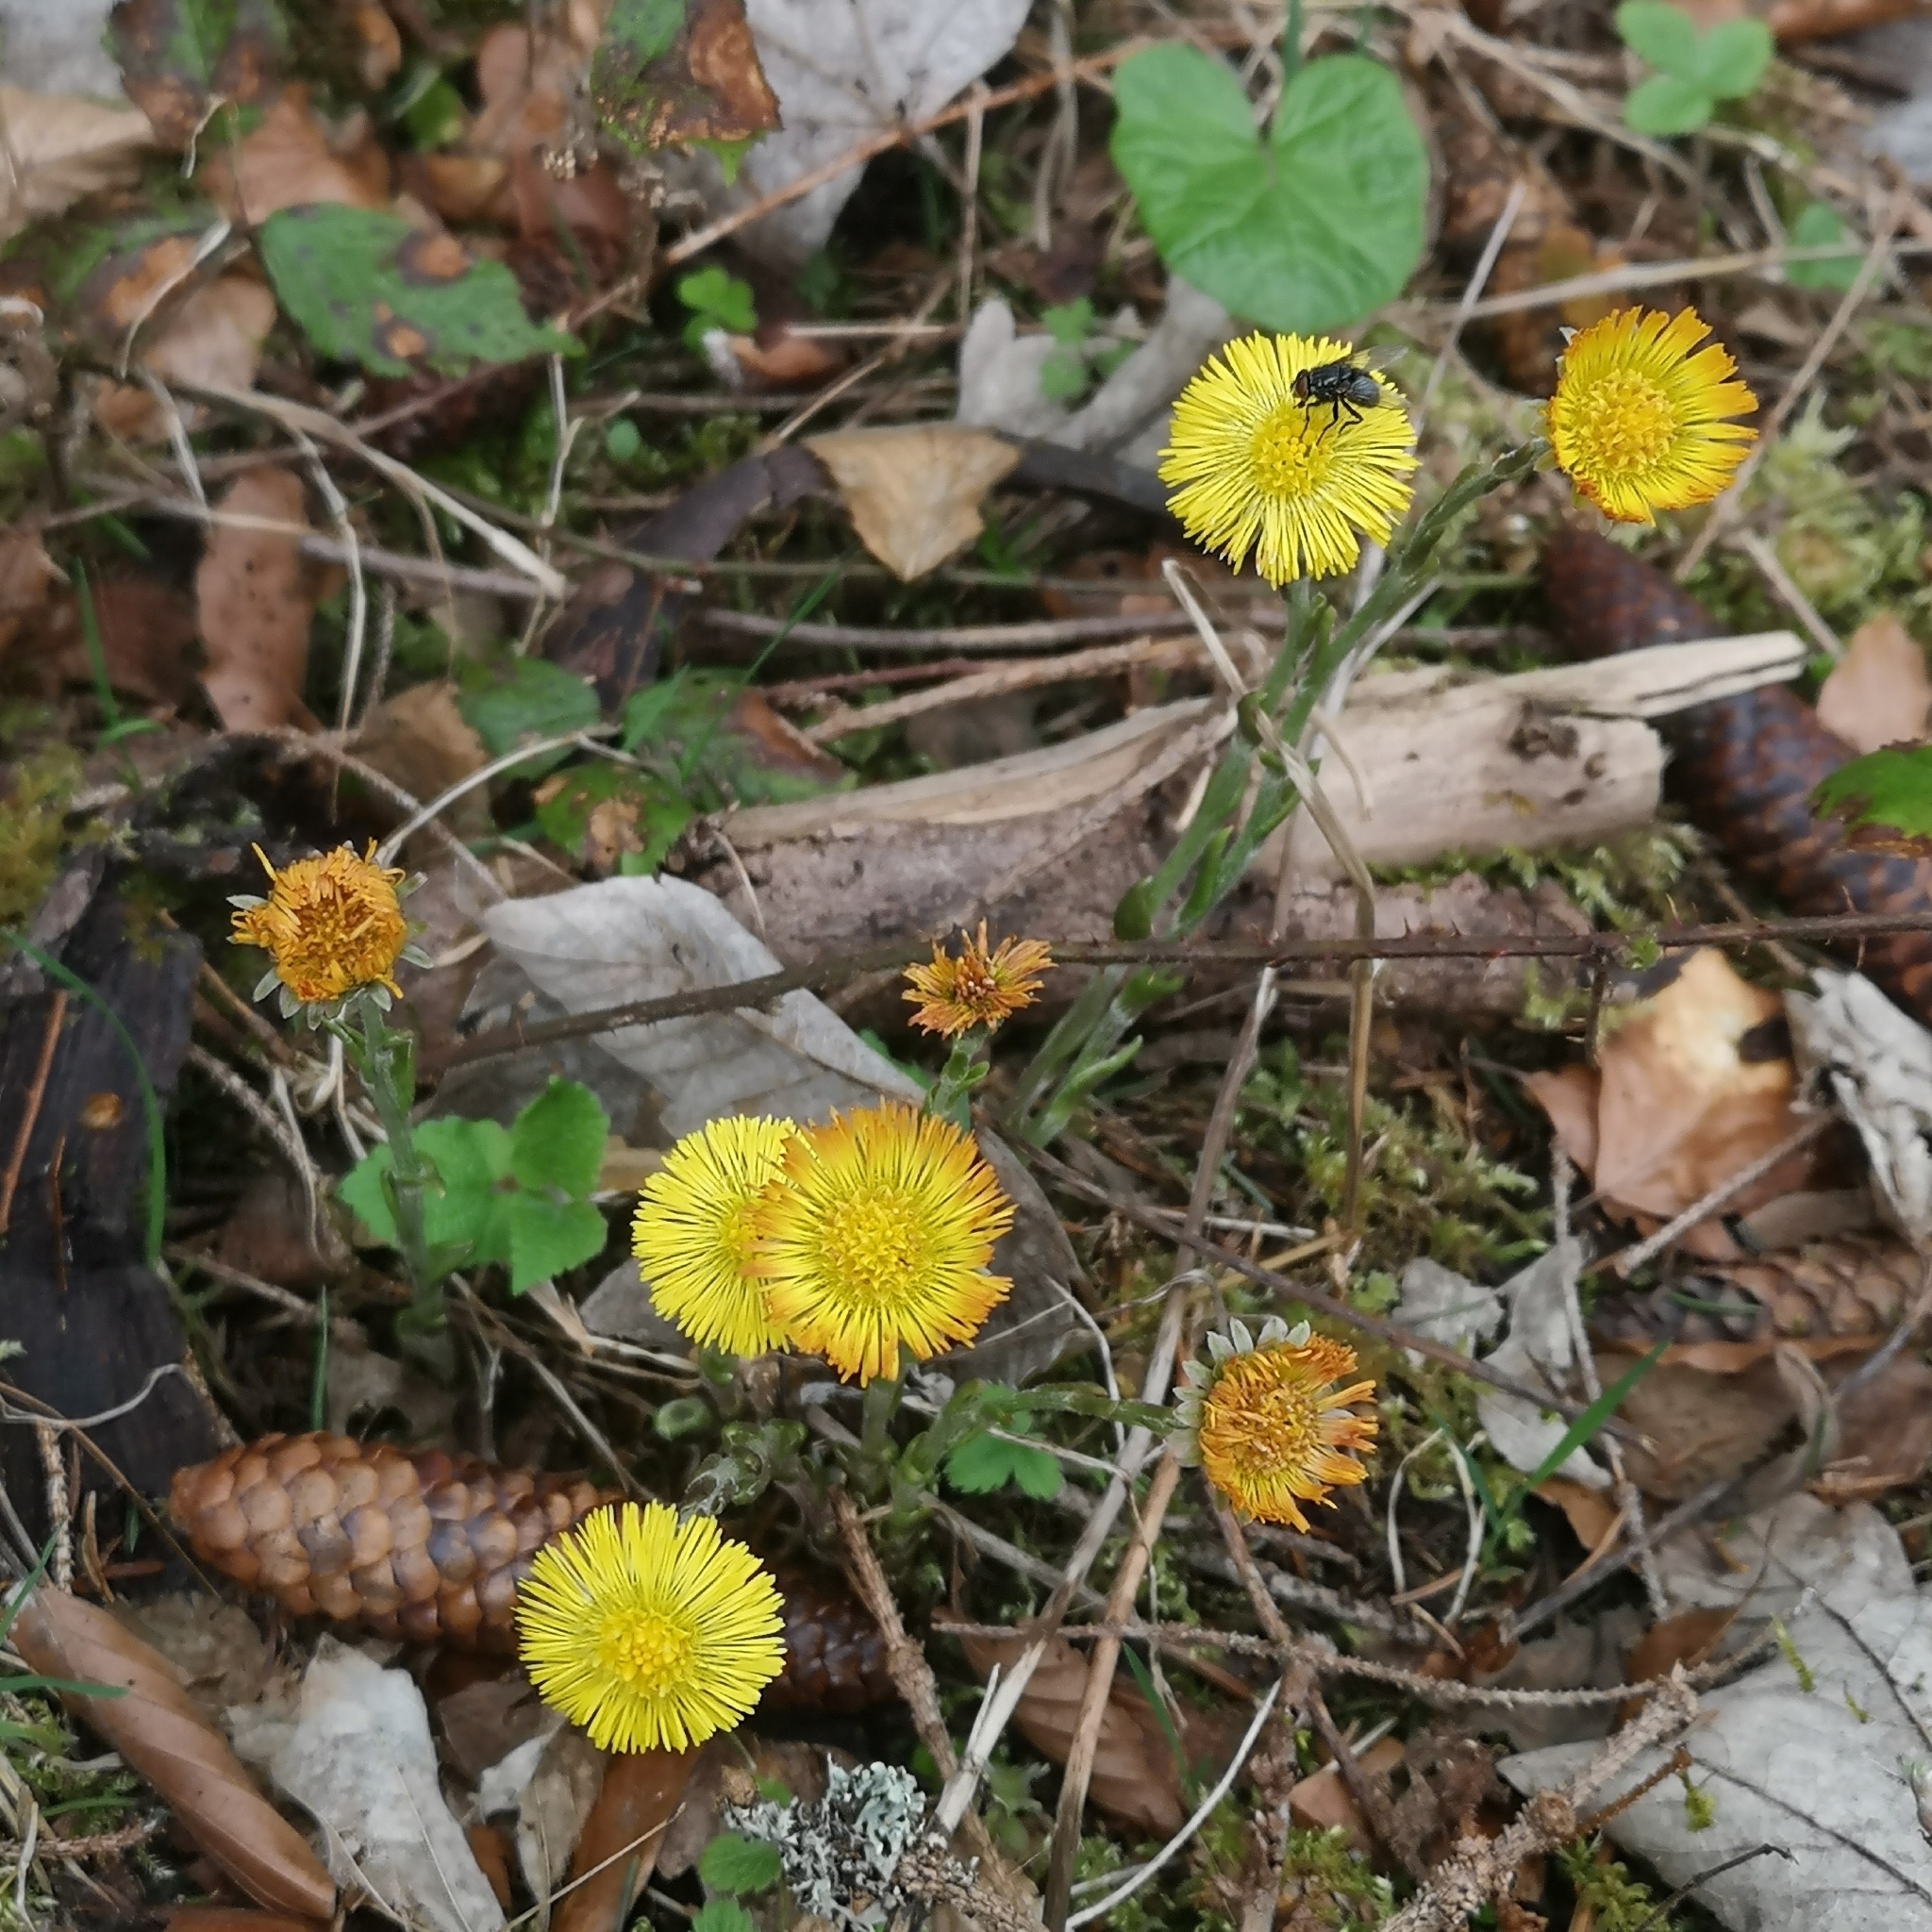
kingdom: Plantae
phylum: Tracheophyta
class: Magnoliopsida
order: Asterales
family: Asteraceae
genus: Tussilago
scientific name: Tussilago farfara
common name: Coltsfoot
